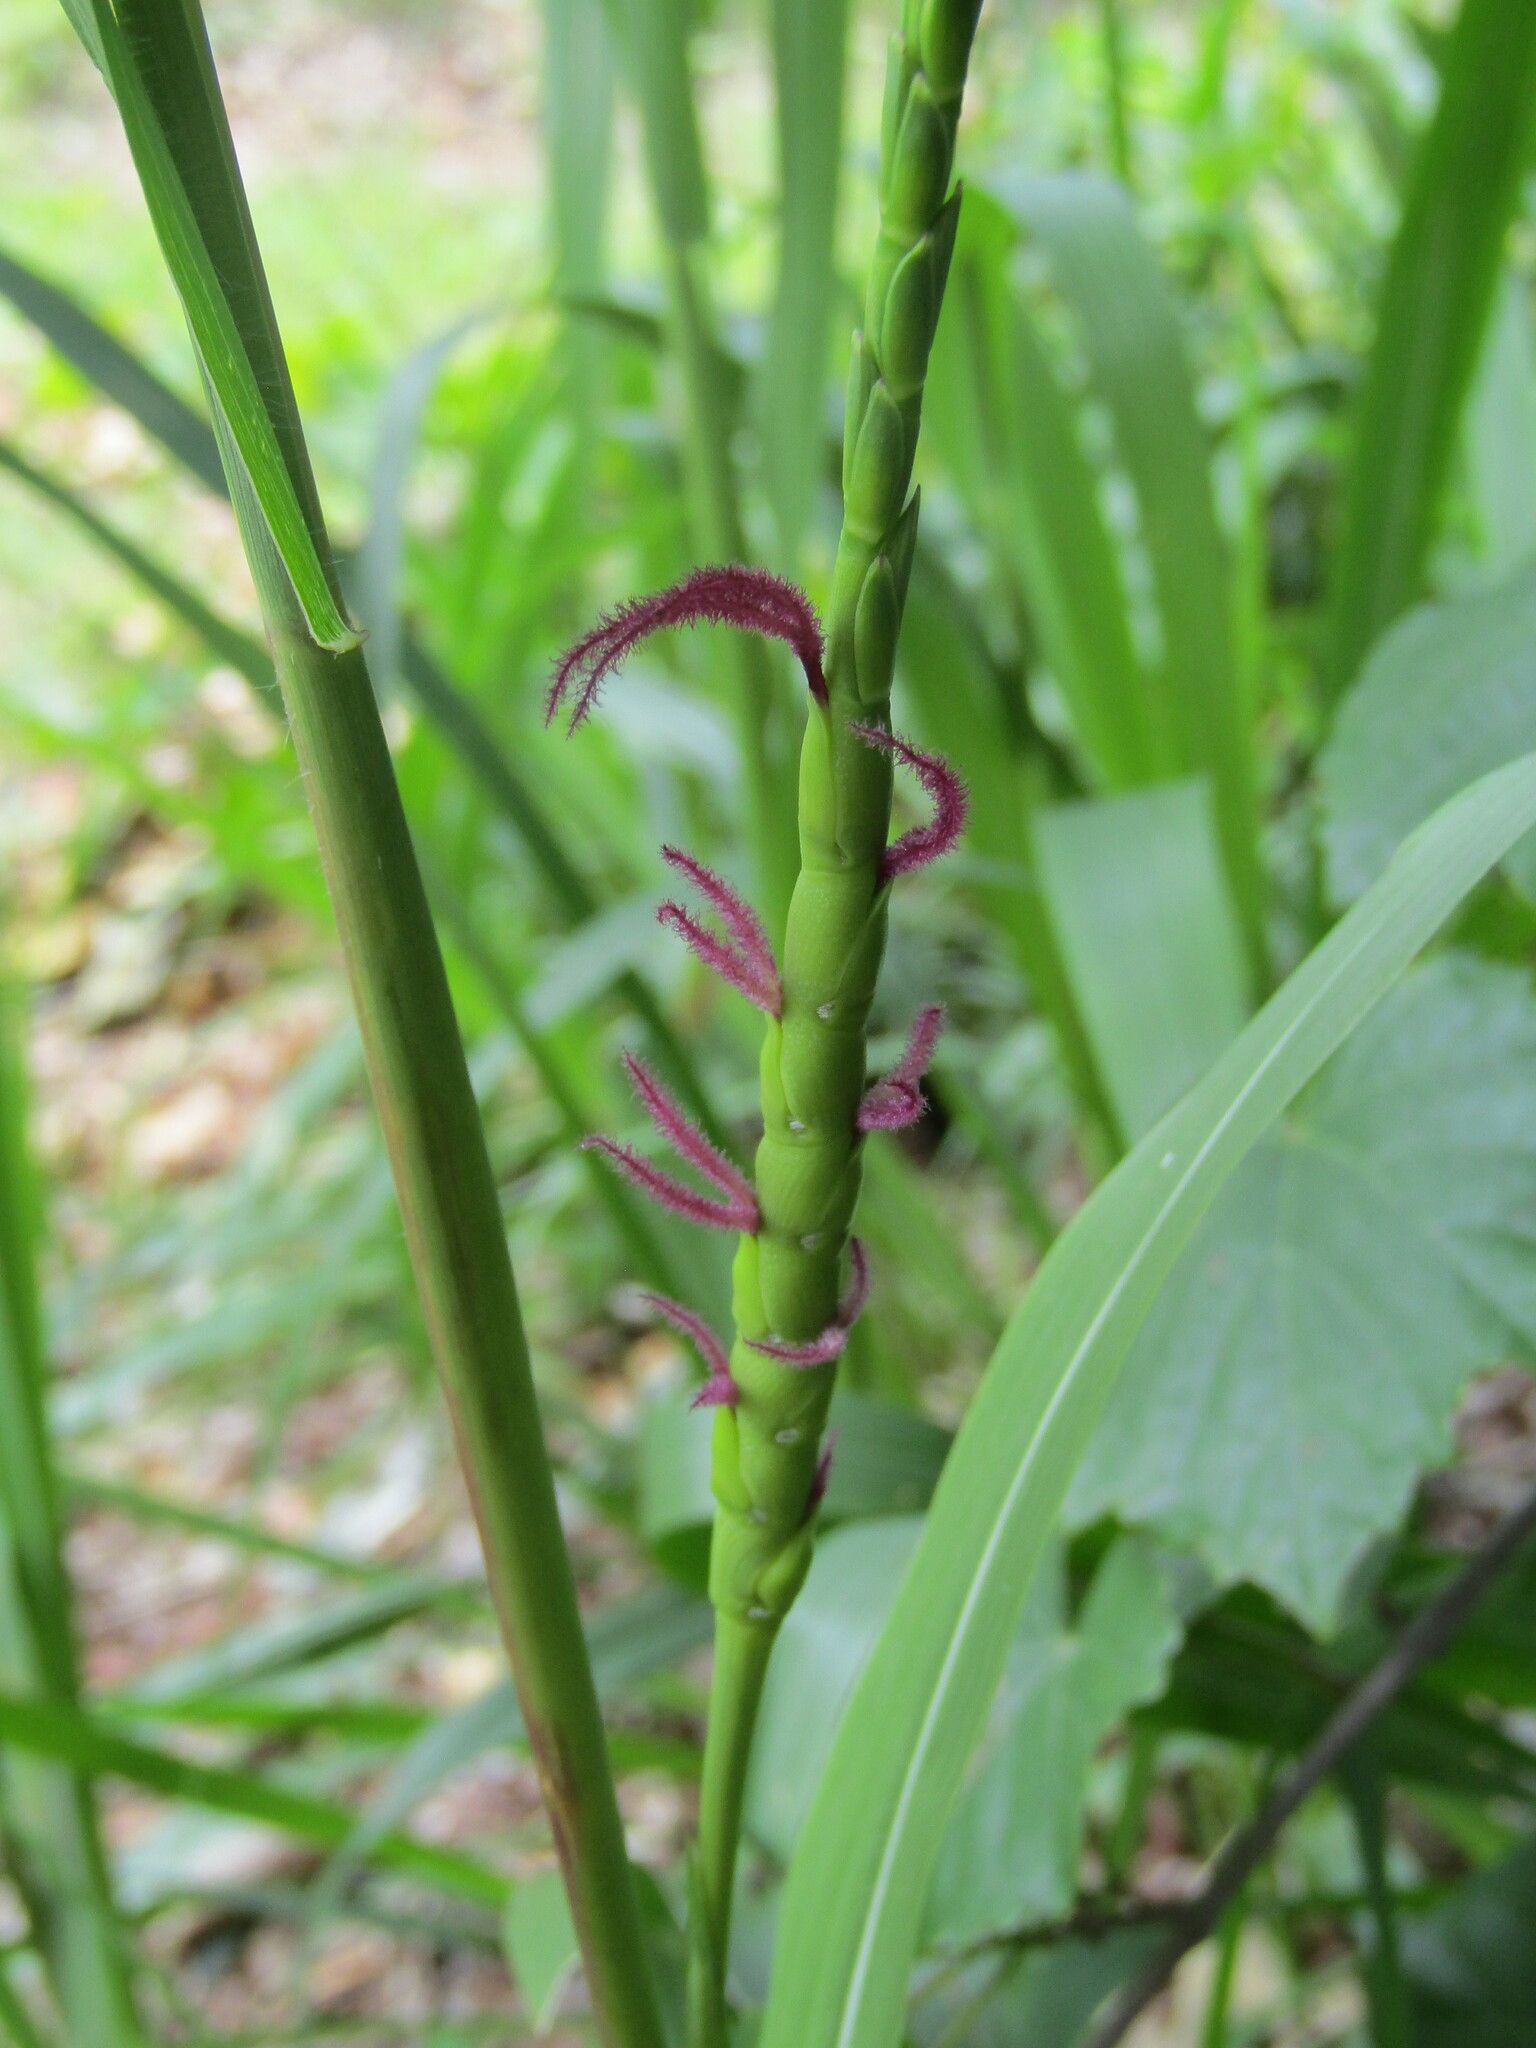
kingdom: Plantae
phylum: Tracheophyta
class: Liliopsida
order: Poales
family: Poaceae
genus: Tripsacum
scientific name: Tripsacum dactyloides
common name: Buffalo-grass
